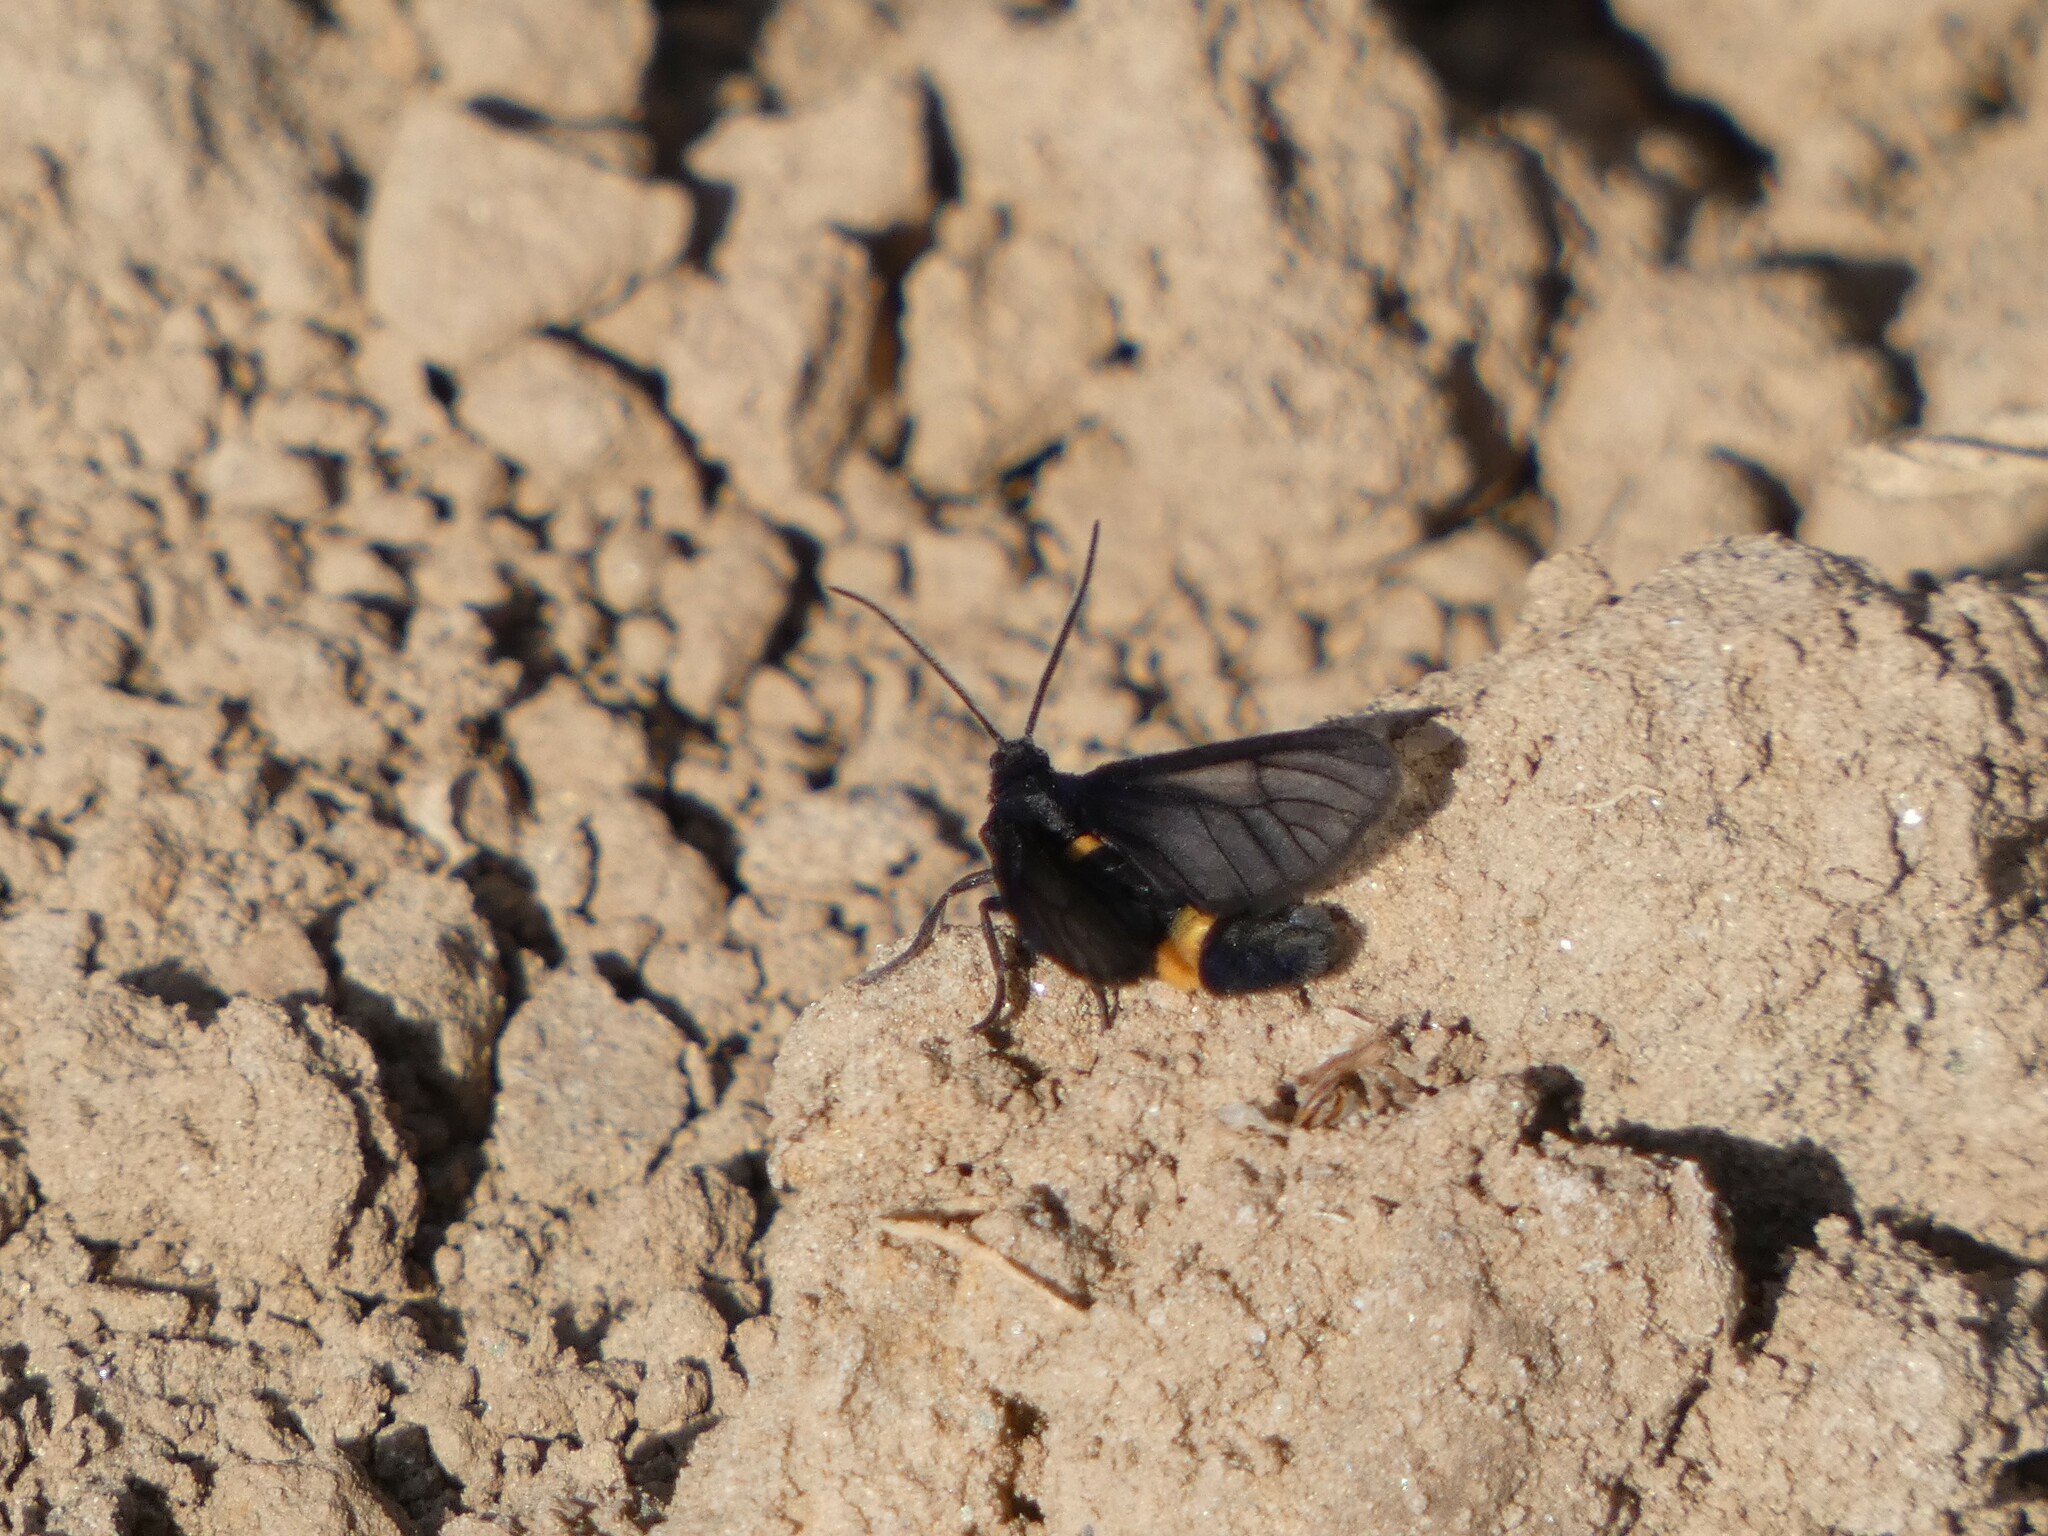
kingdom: Animalia
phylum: Arthropoda
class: Insecta
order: Lepidoptera
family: Erebidae
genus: Psichotoe
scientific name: Psichotoe duvauceli
